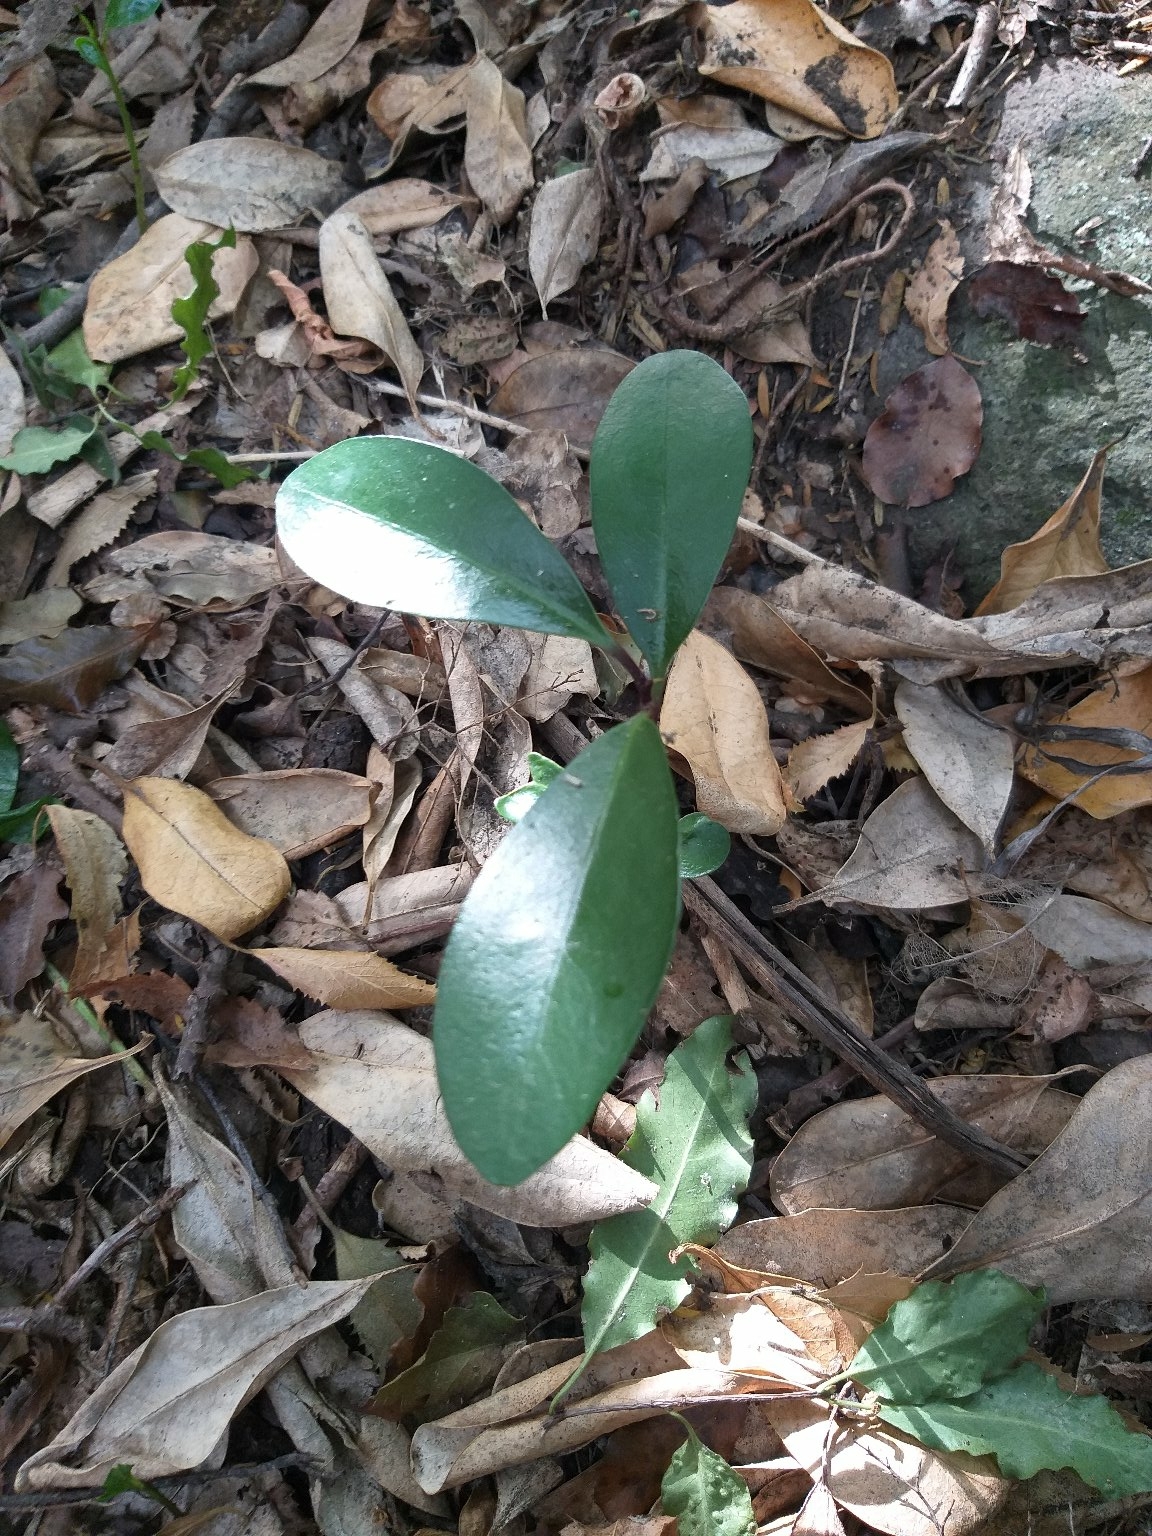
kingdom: Plantae
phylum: Tracheophyta
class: Magnoliopsida
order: Cucurbitales
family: Corynocarpaceae
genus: Corynocarpus
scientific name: Corynocarpus laevigatus
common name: New zealand laurel
